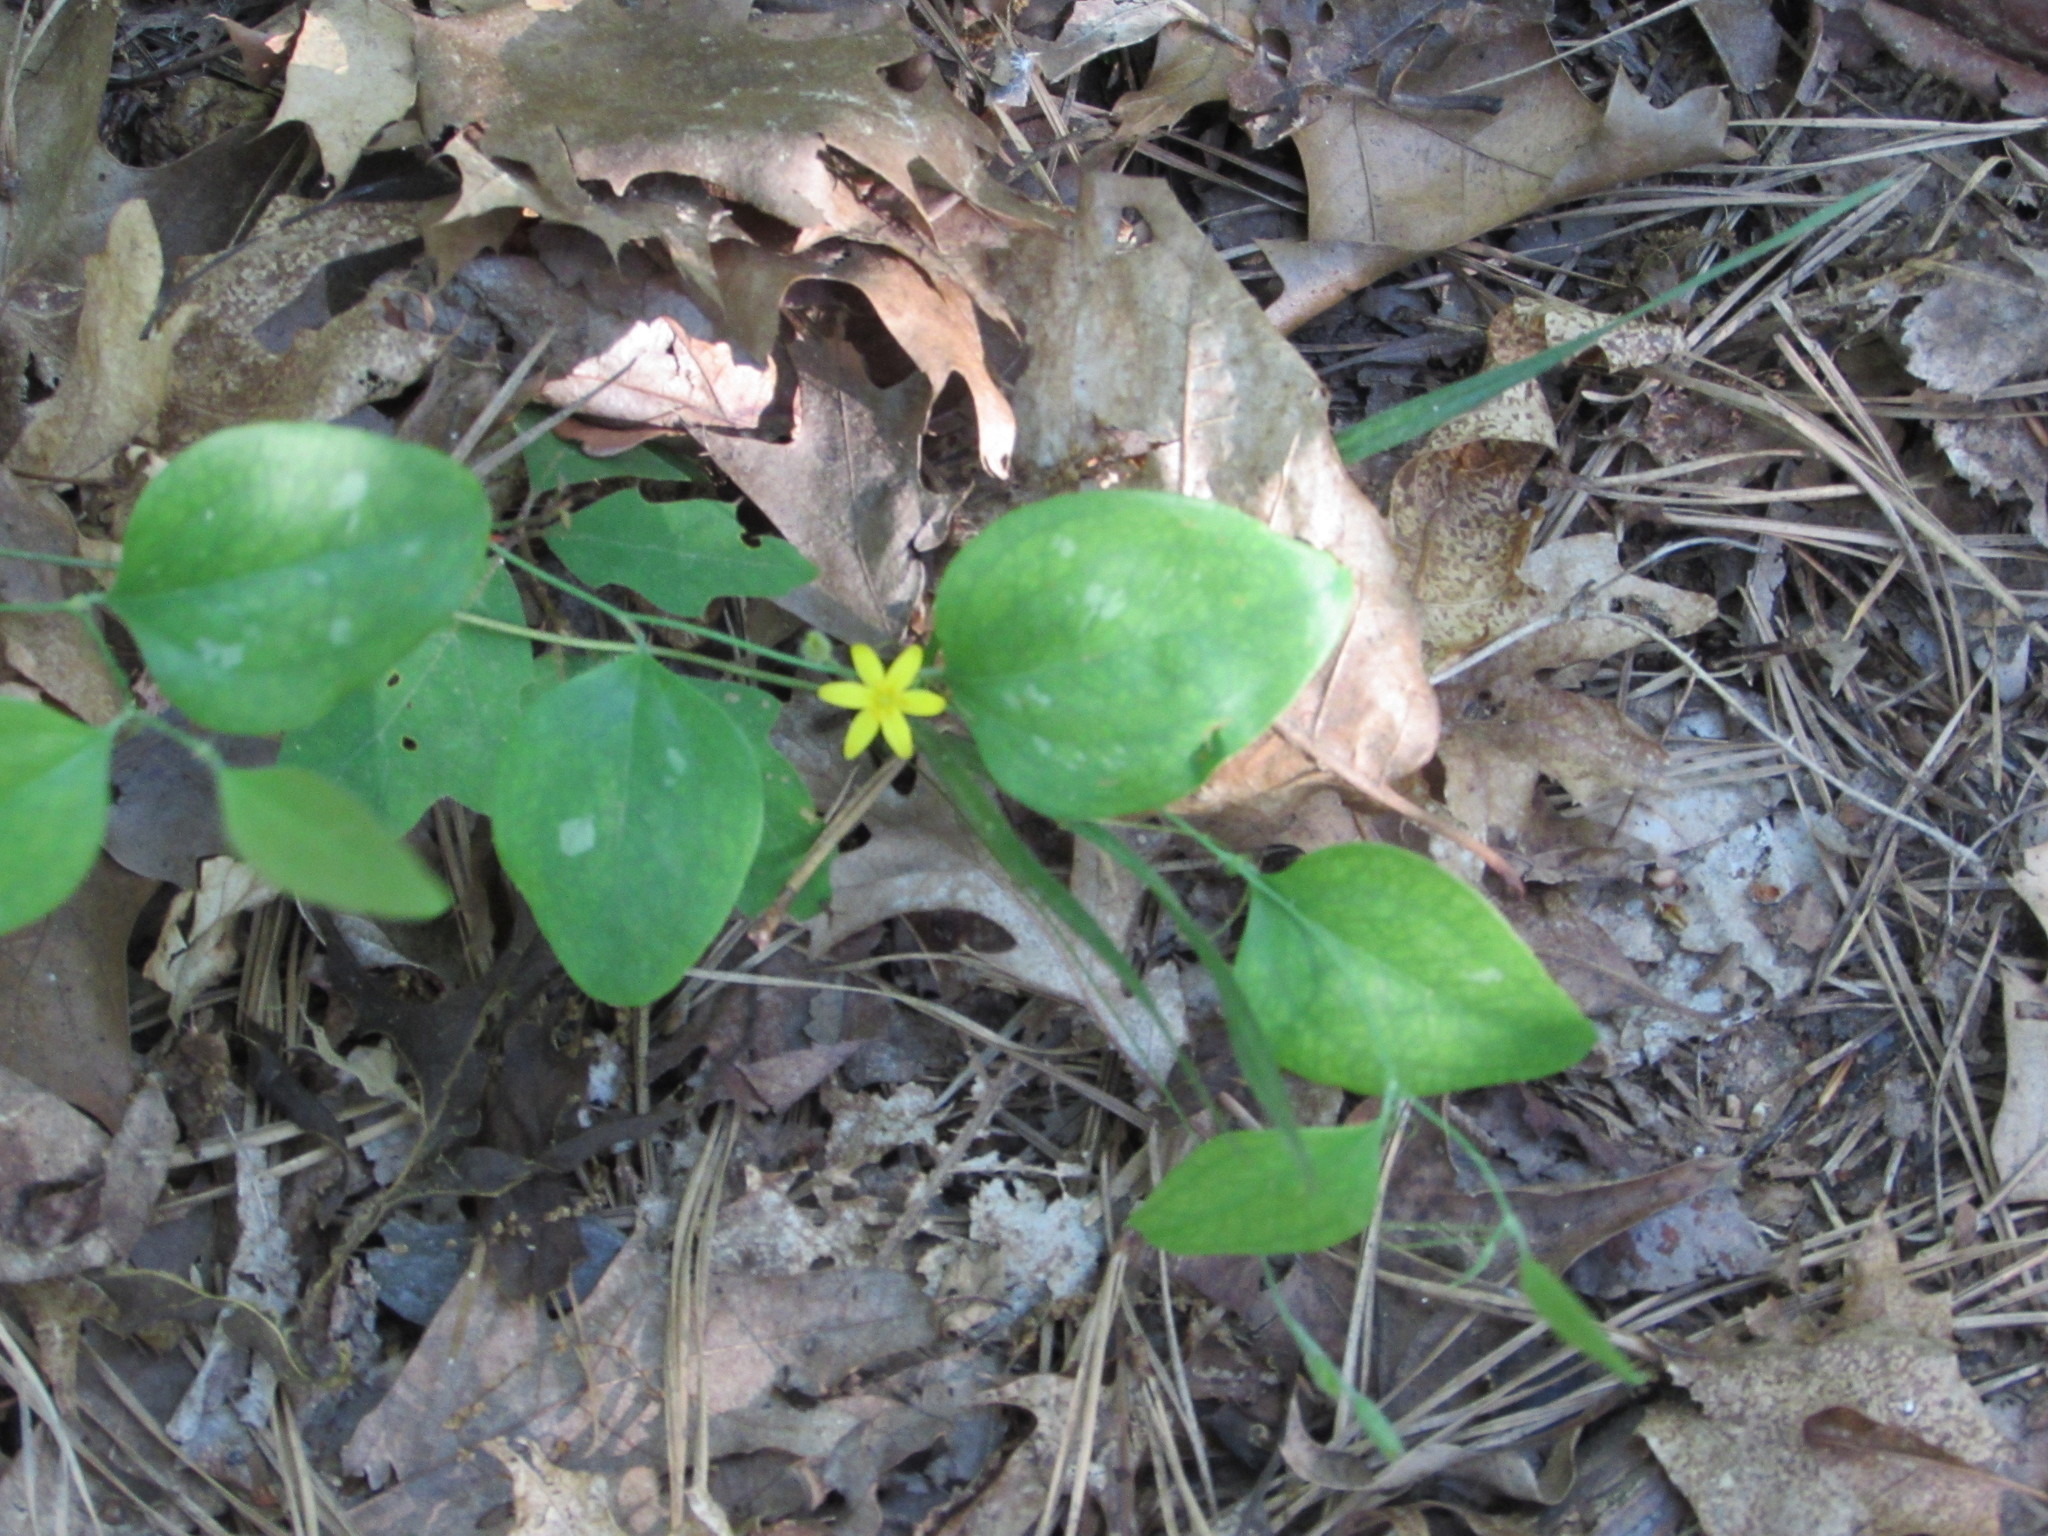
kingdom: Plantae
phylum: Tracheophyta
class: Liliopsida
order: Asparagales
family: Hypoxidaceae
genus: Hypoxis
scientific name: Hypoxis hirsuta
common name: Common goldstar
